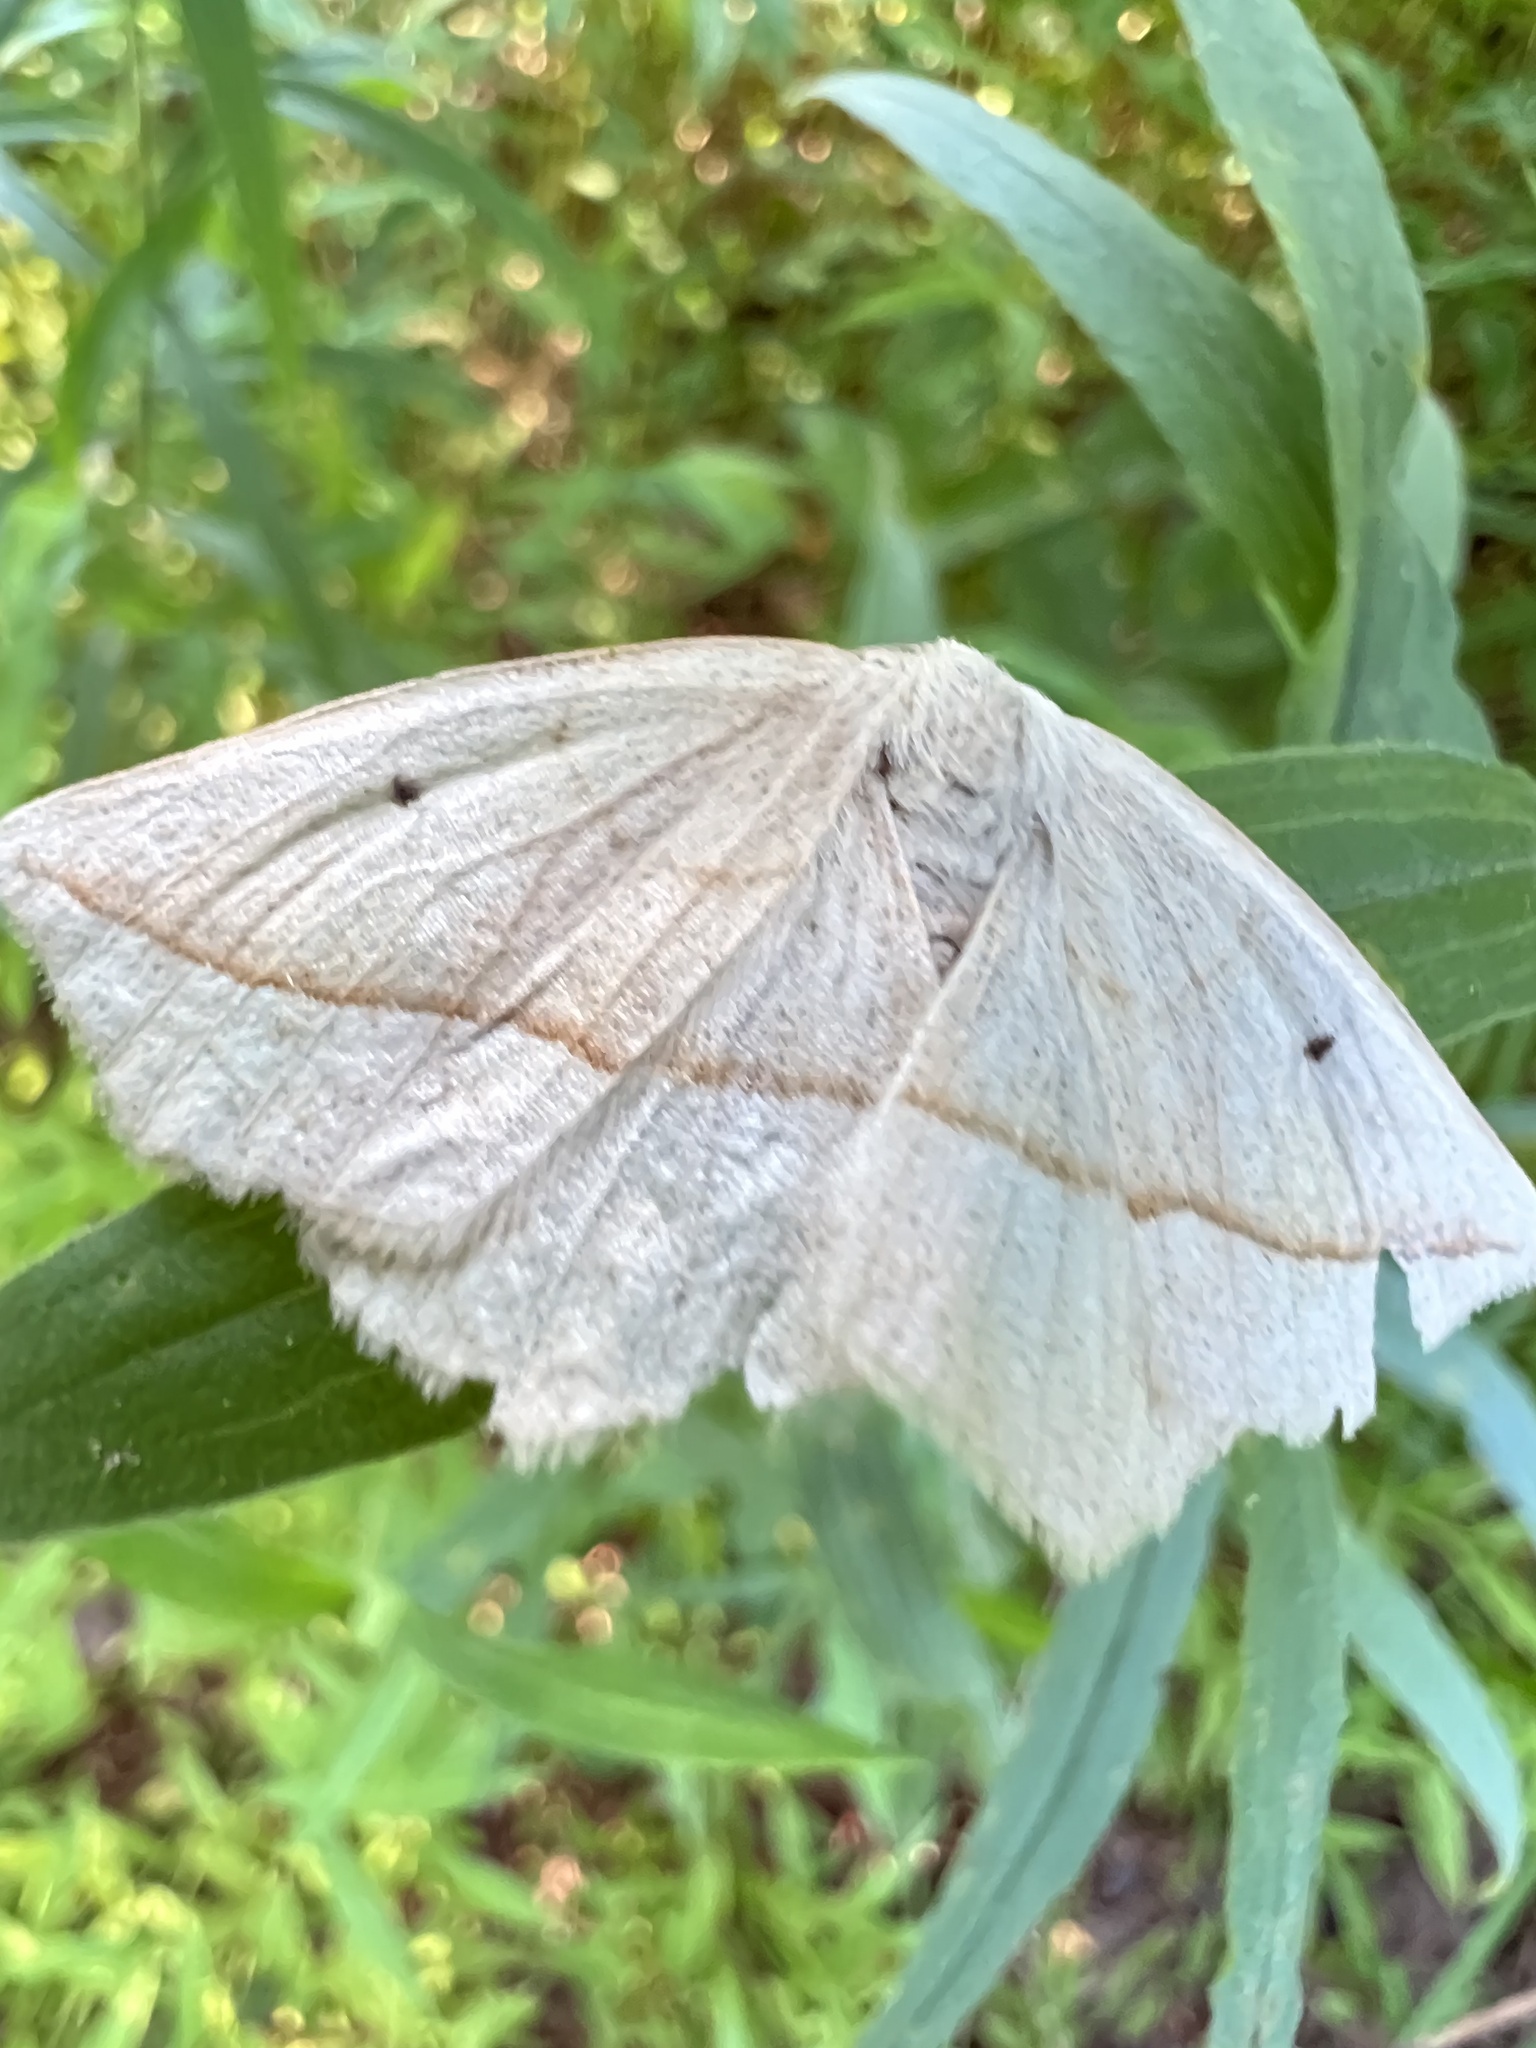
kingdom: Animalia
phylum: Arthropoda
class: Insecta
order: Lepidoptera
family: Geometridae
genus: Eusarca
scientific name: Eusarca confusaria
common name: Confused eusarca
